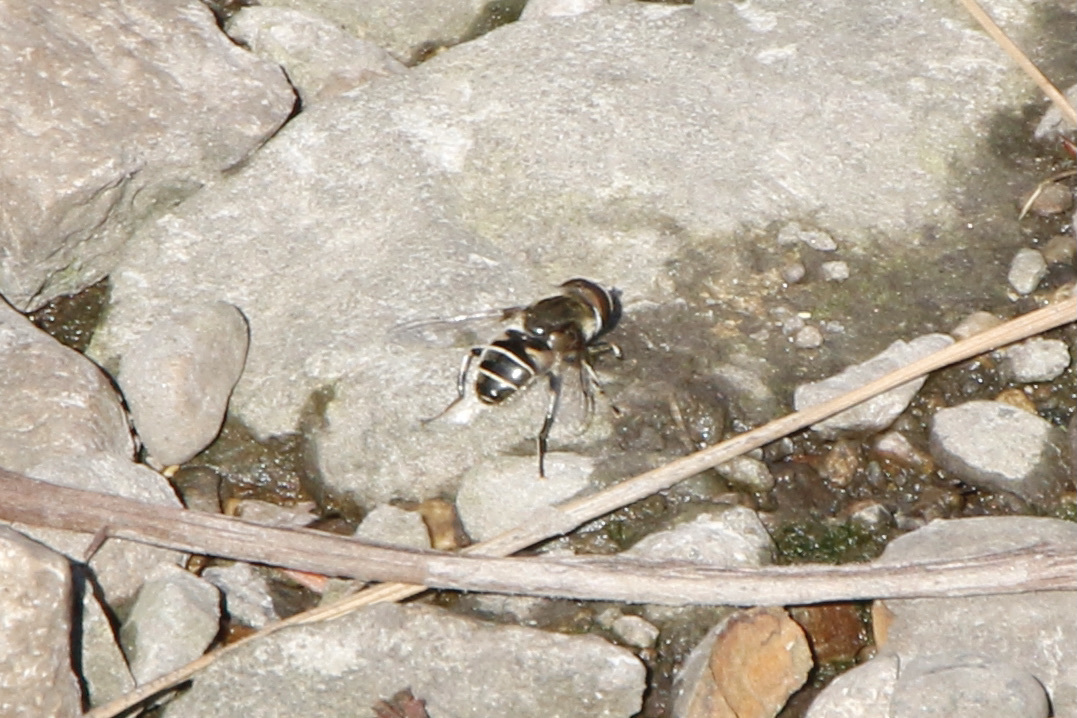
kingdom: Animalia
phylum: Arthropoda
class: Insecta
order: Diptera
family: Syrphidae
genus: Eristalis
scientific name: Eristalis dimidiata
